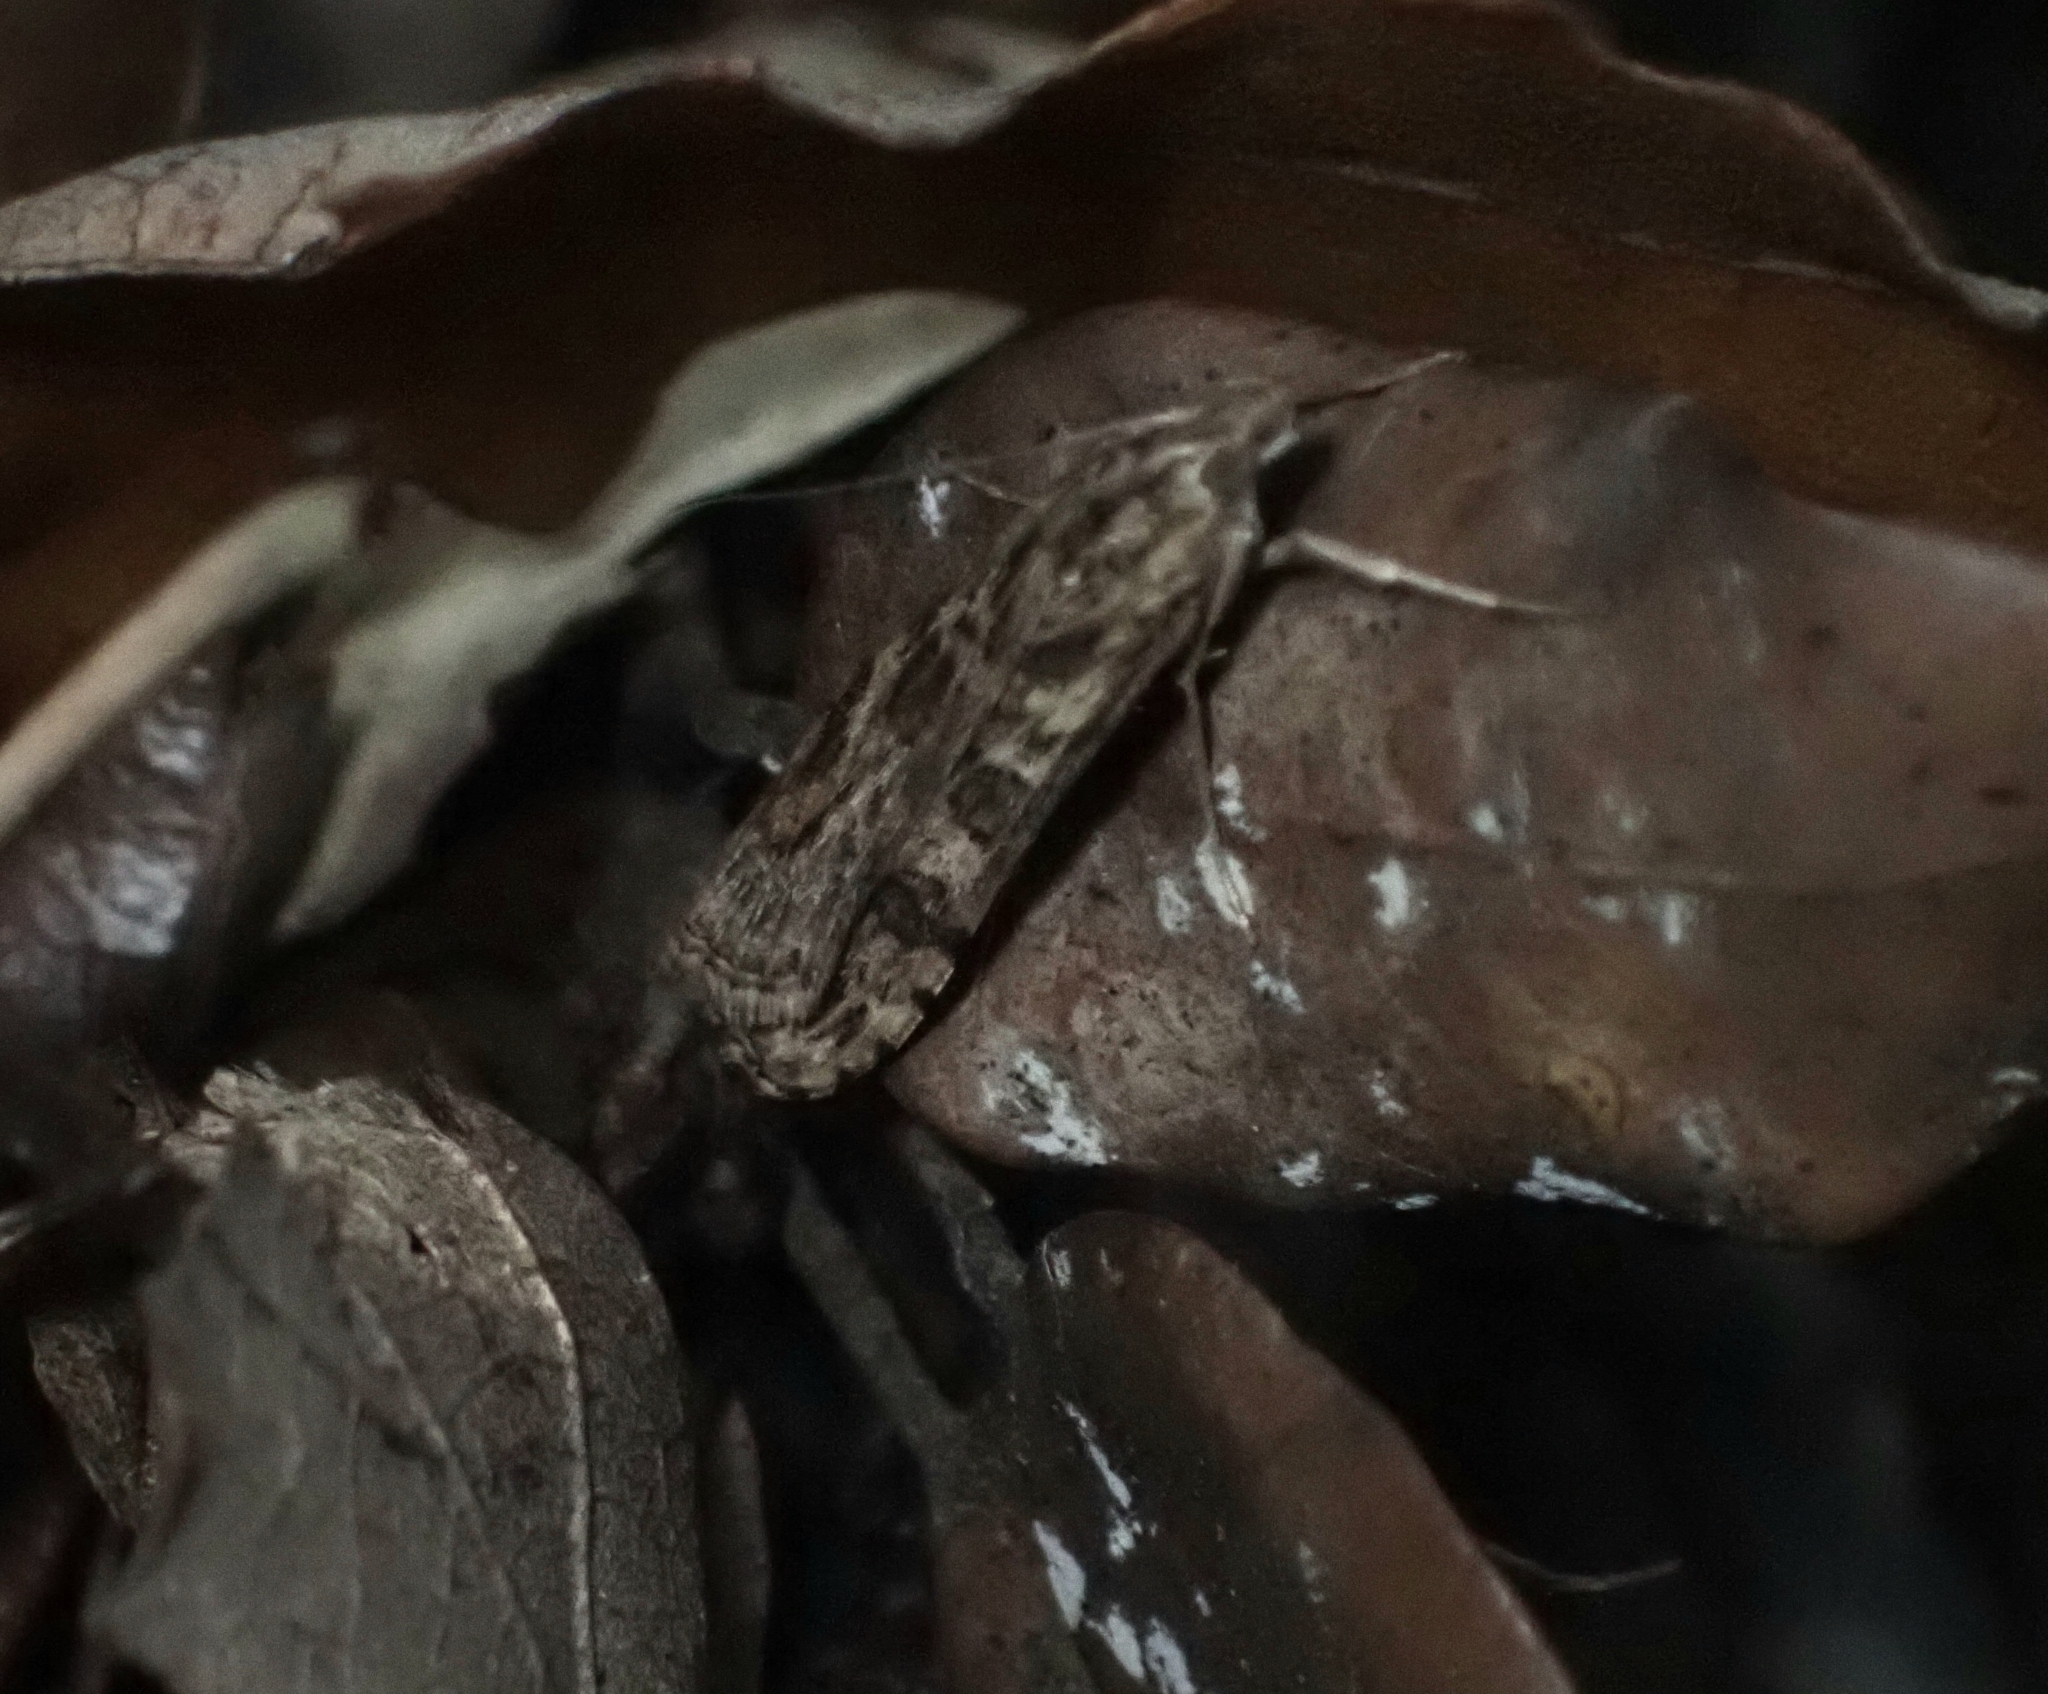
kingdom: Animalia
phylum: Arthropoda
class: Insecta
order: Lepidoptera
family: Crambidae
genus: Nomophila
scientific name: Nomophila noctuella
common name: Rush veneer
